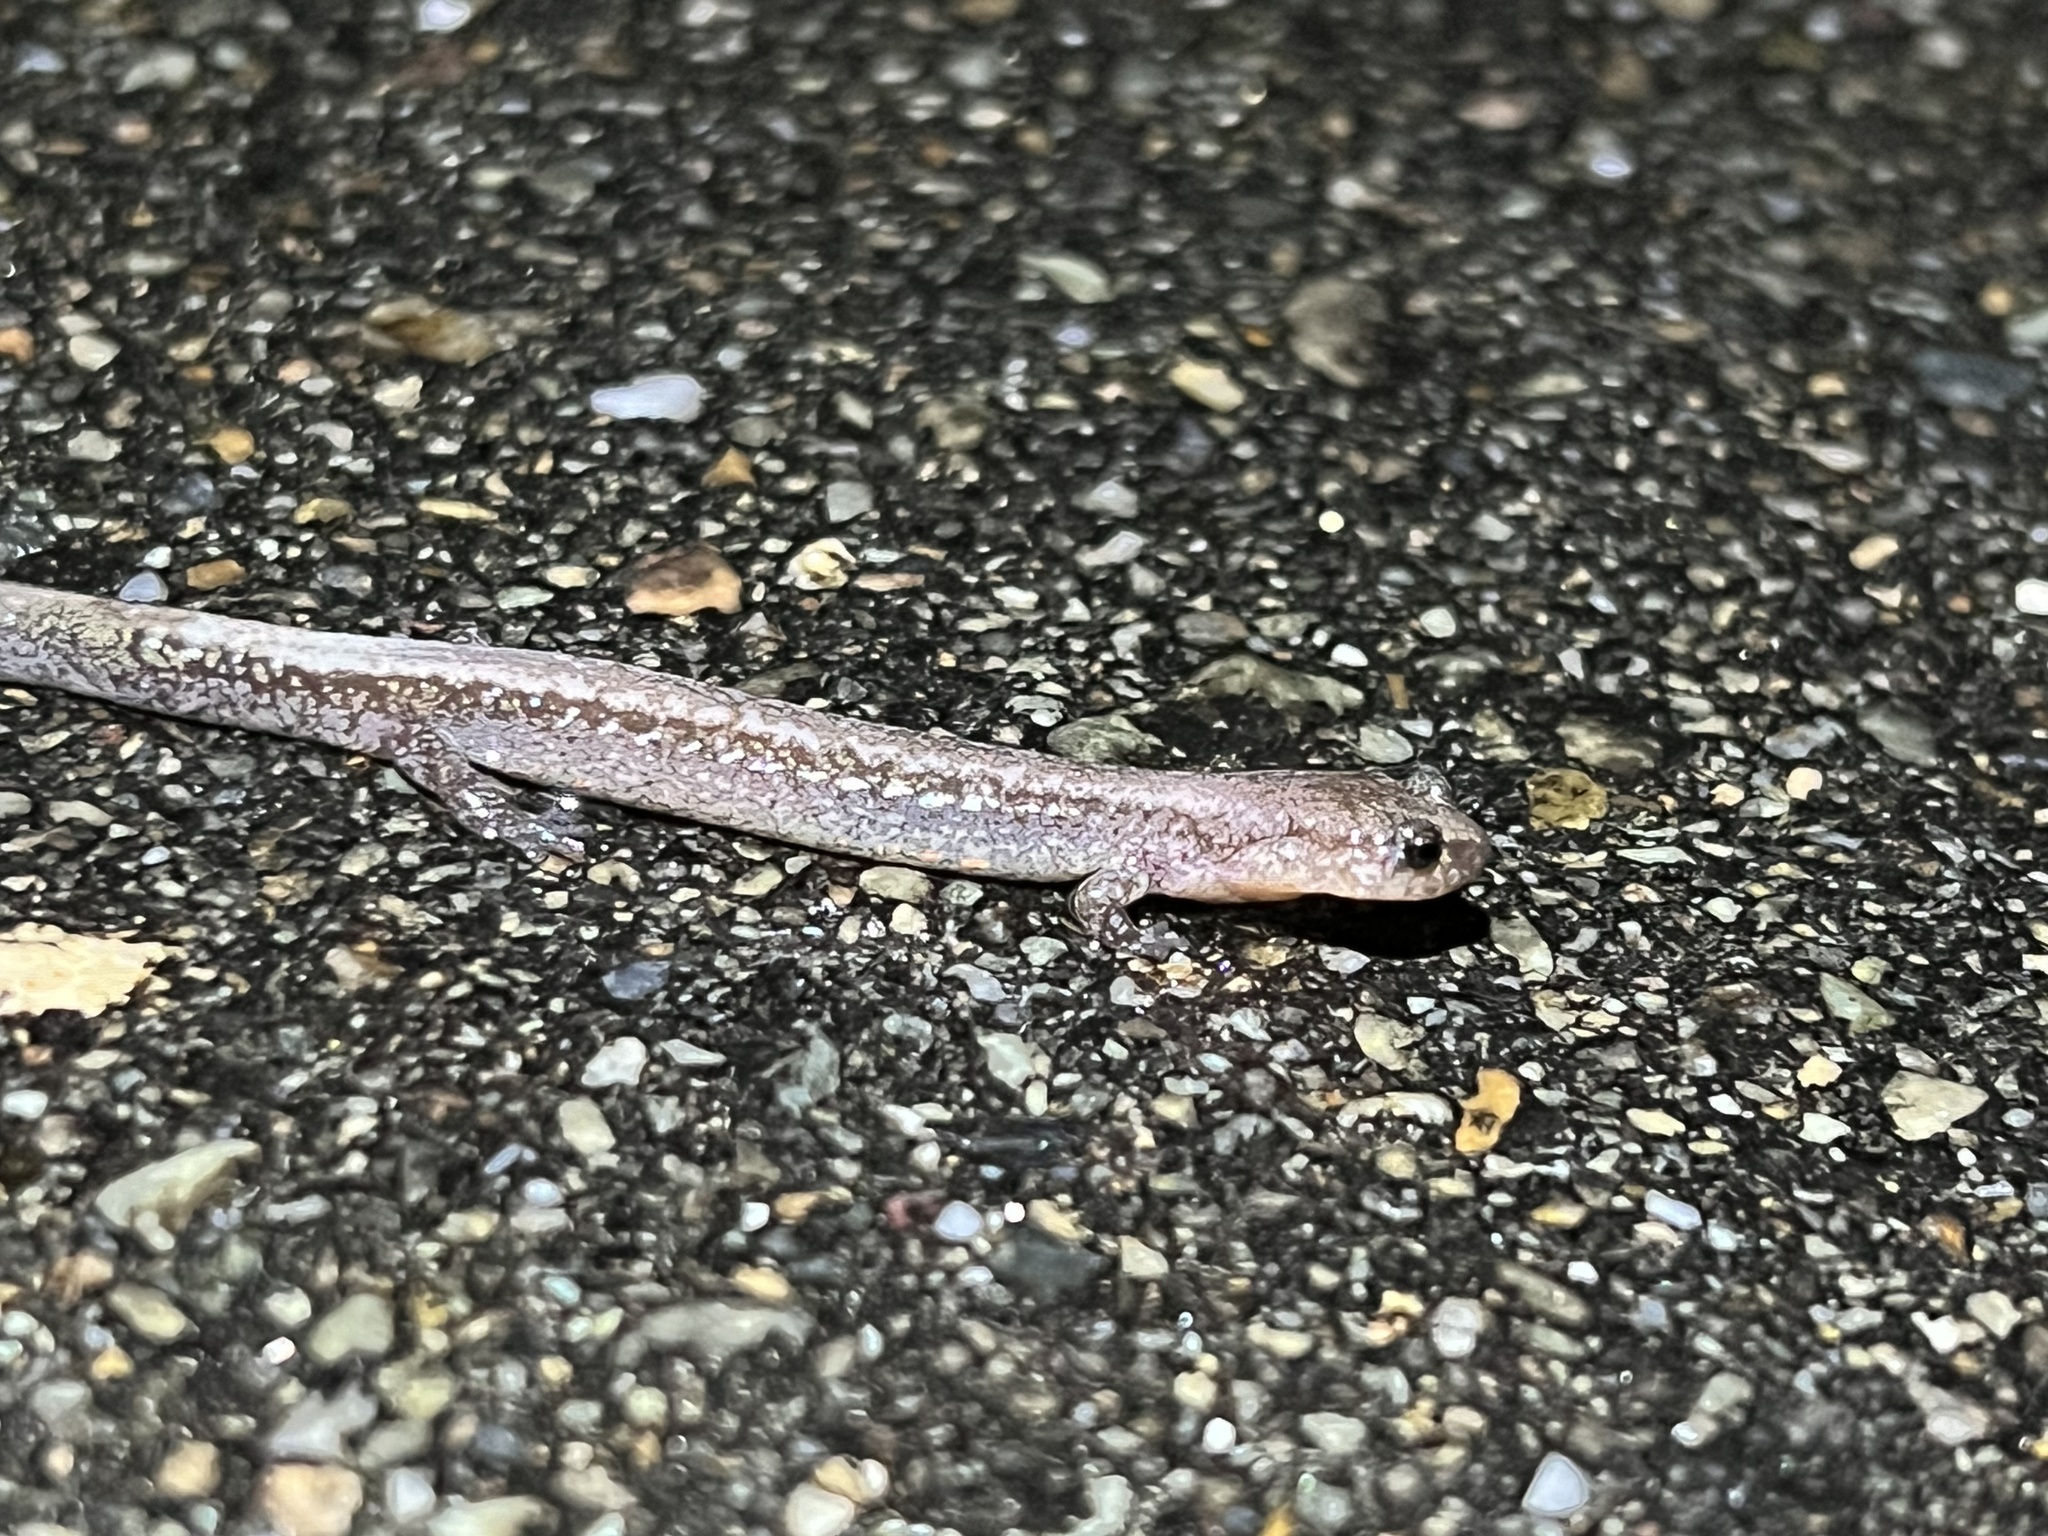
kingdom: Animalia
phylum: Chordata
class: Amphibia
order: Caudata
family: Plethodontidae
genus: Plethodon
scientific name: Plethodon cinereus
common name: Redback salamander
